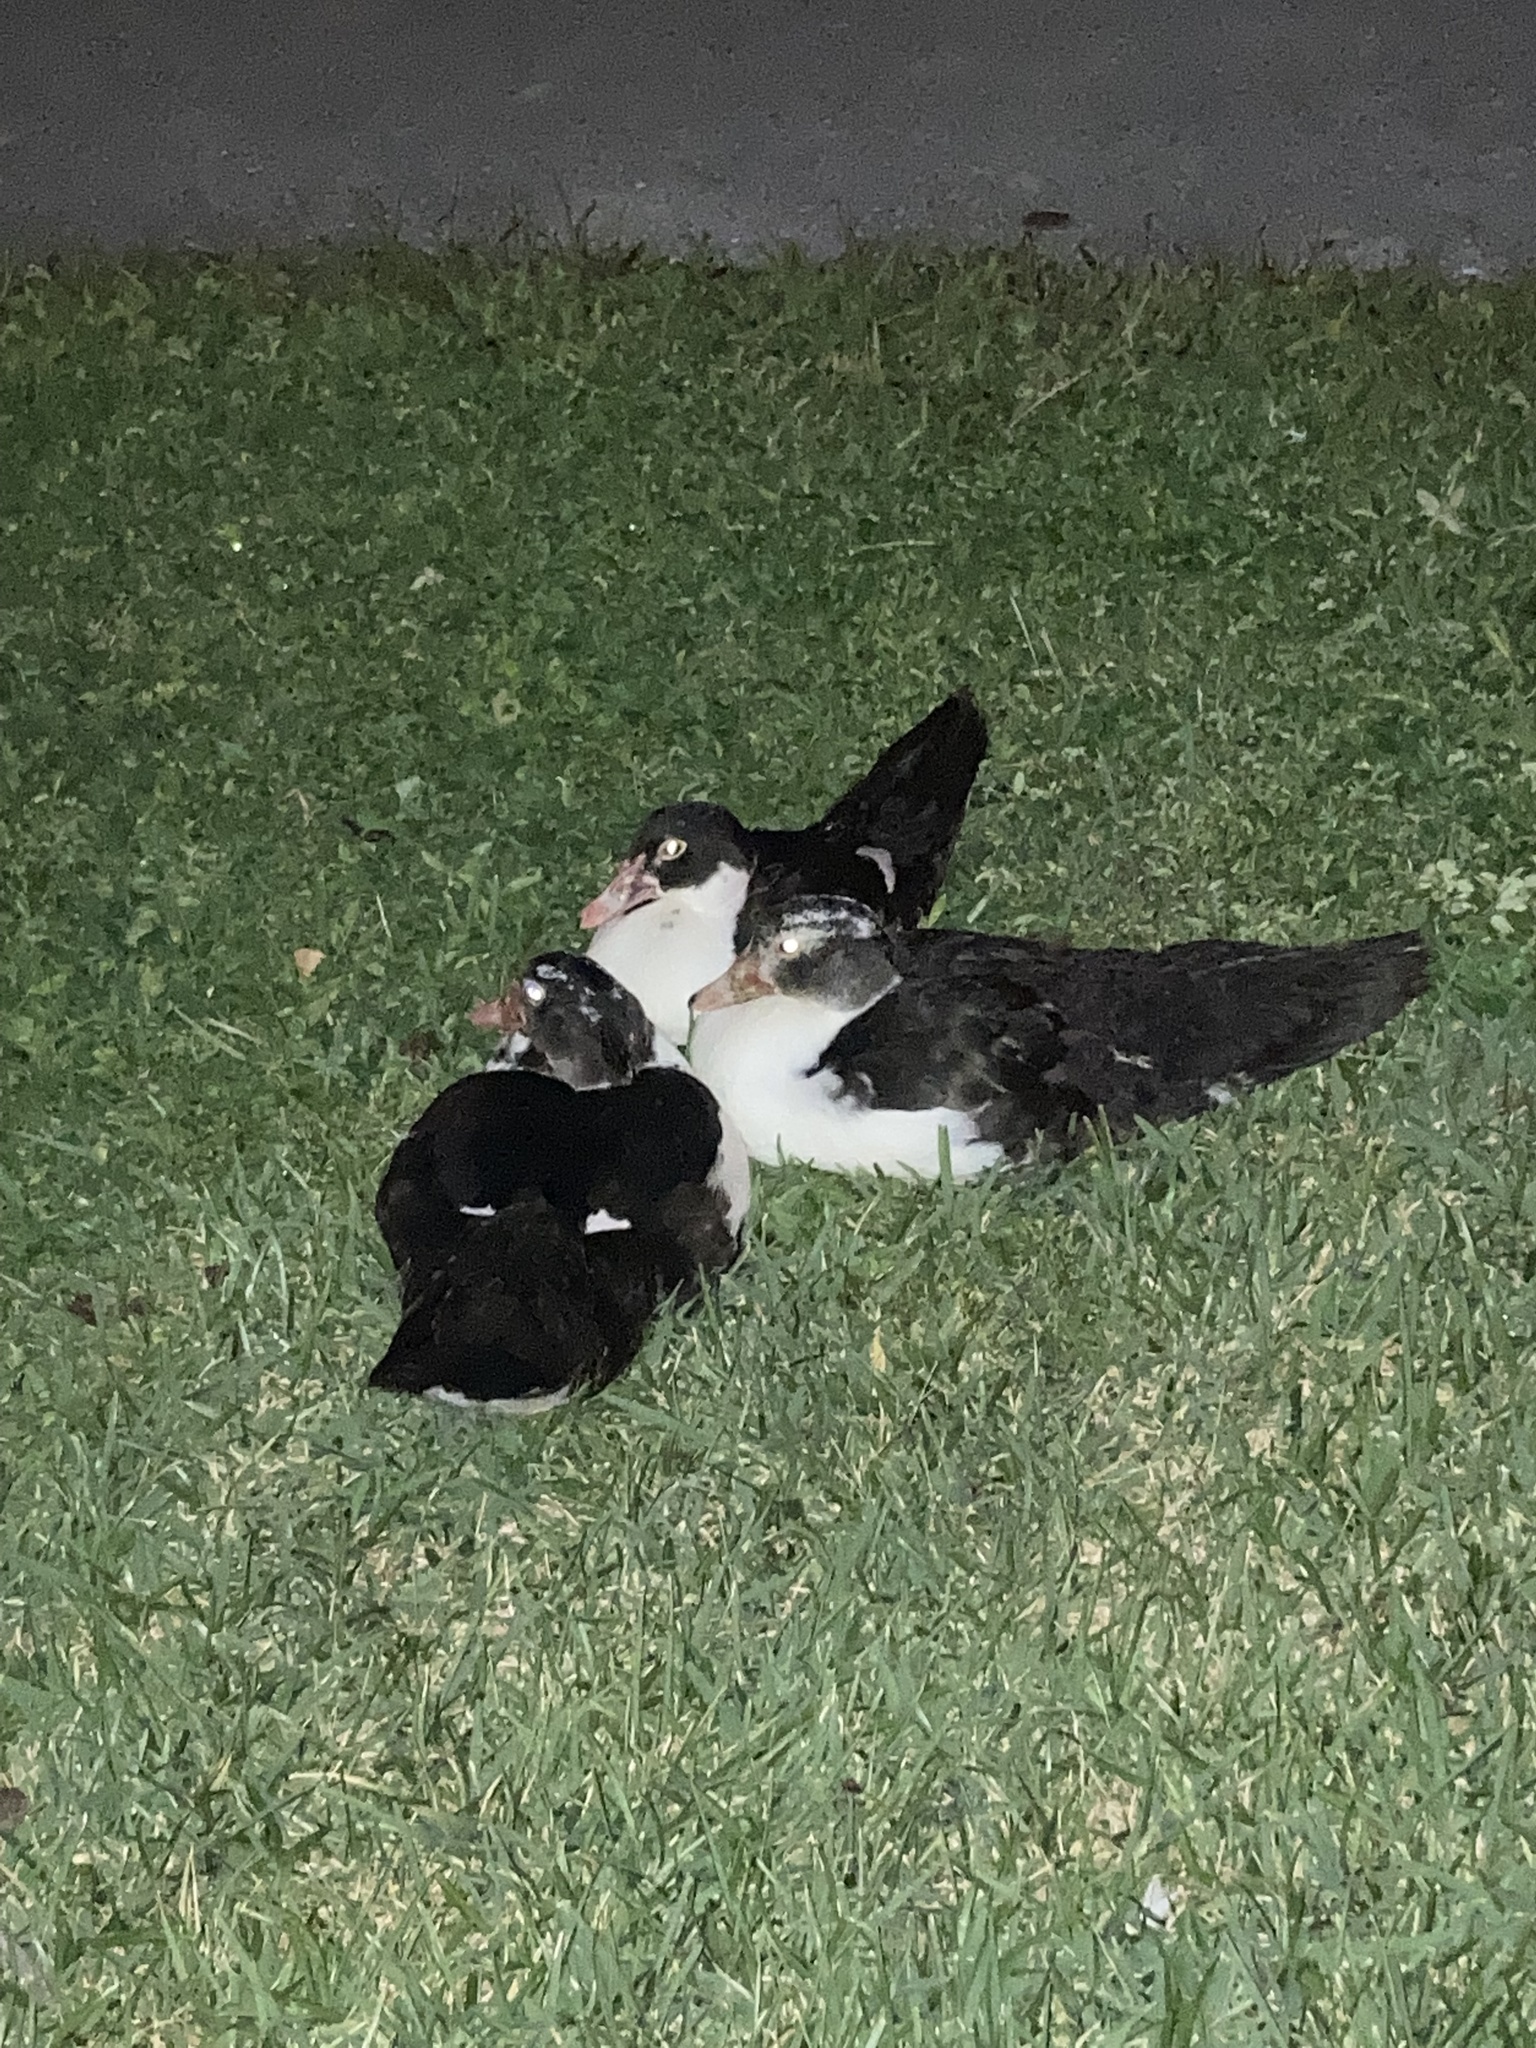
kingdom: Animalia
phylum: Chordata
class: Aves
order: Anseriformes
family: Anatidae
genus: Cairina
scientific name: Cairina moschata
